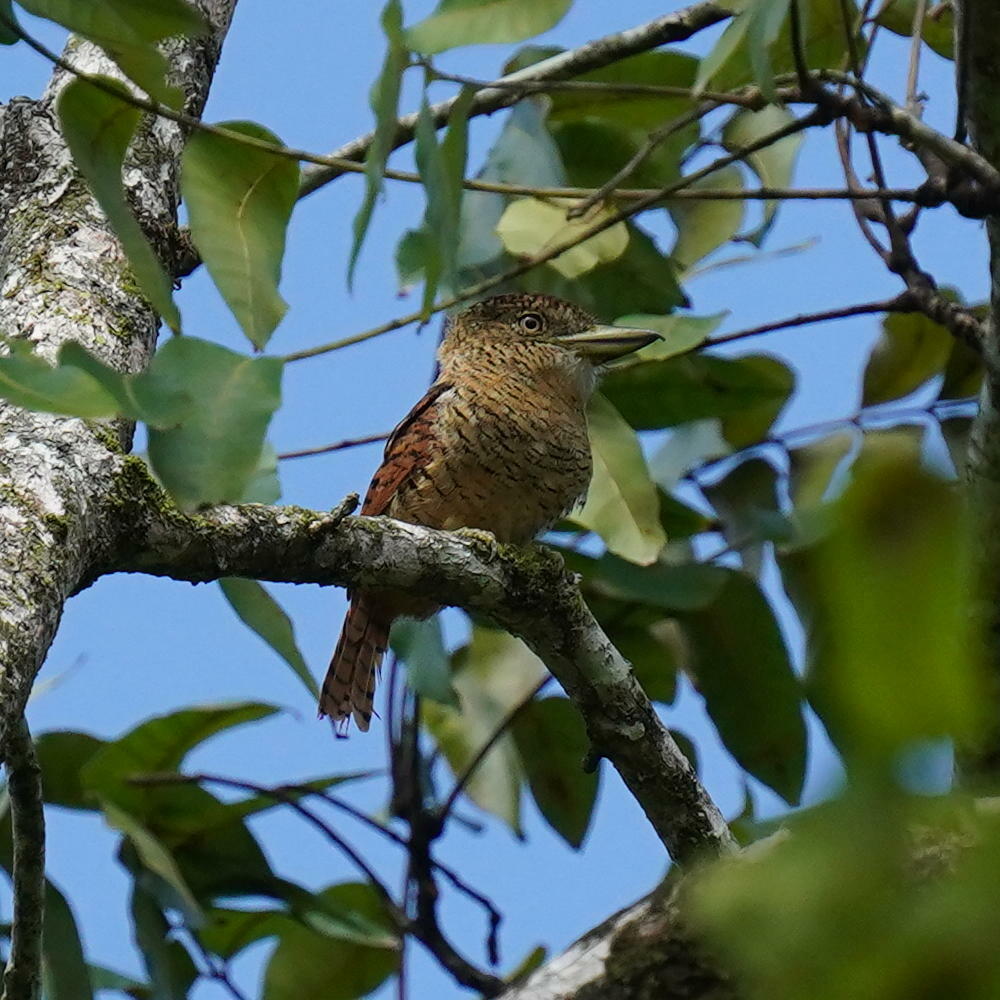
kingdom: Animalia
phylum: Chordata
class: Aves
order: Piciformes
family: Bucconidae
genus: Nystalus
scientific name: Nystalus radiatus
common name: Barred puffbird
